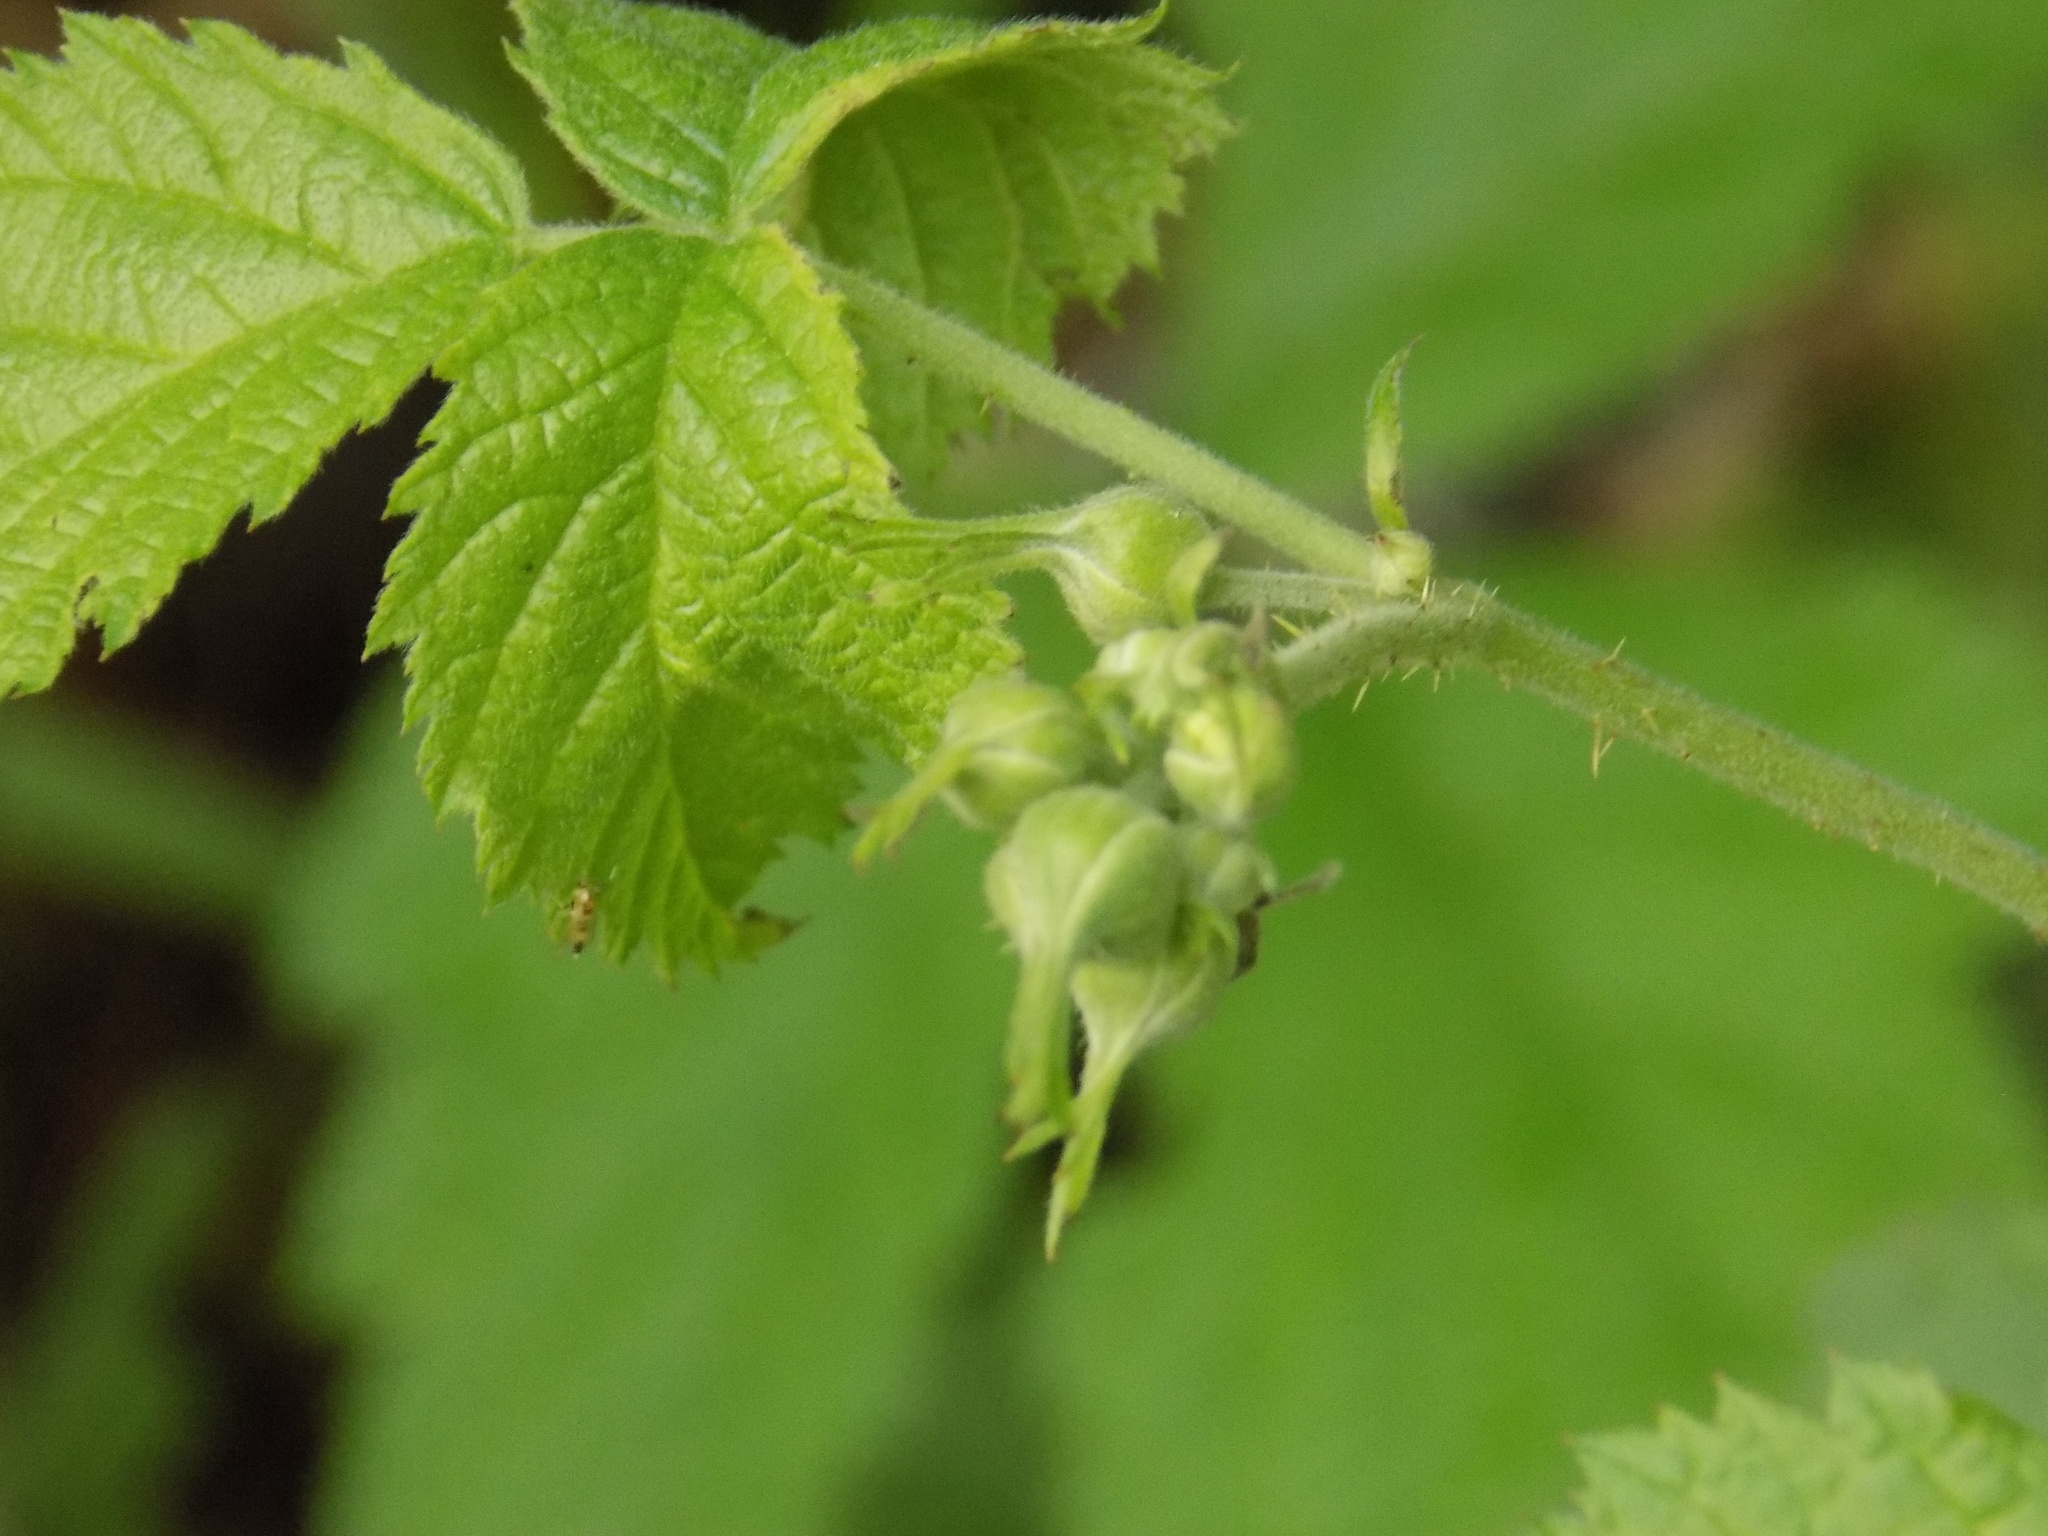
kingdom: Plantae
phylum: Tracheophyta
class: Magnoliopsida
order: Rosales
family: Rosaceae
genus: Rubus
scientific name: Rubus caesius
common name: Dewberry
